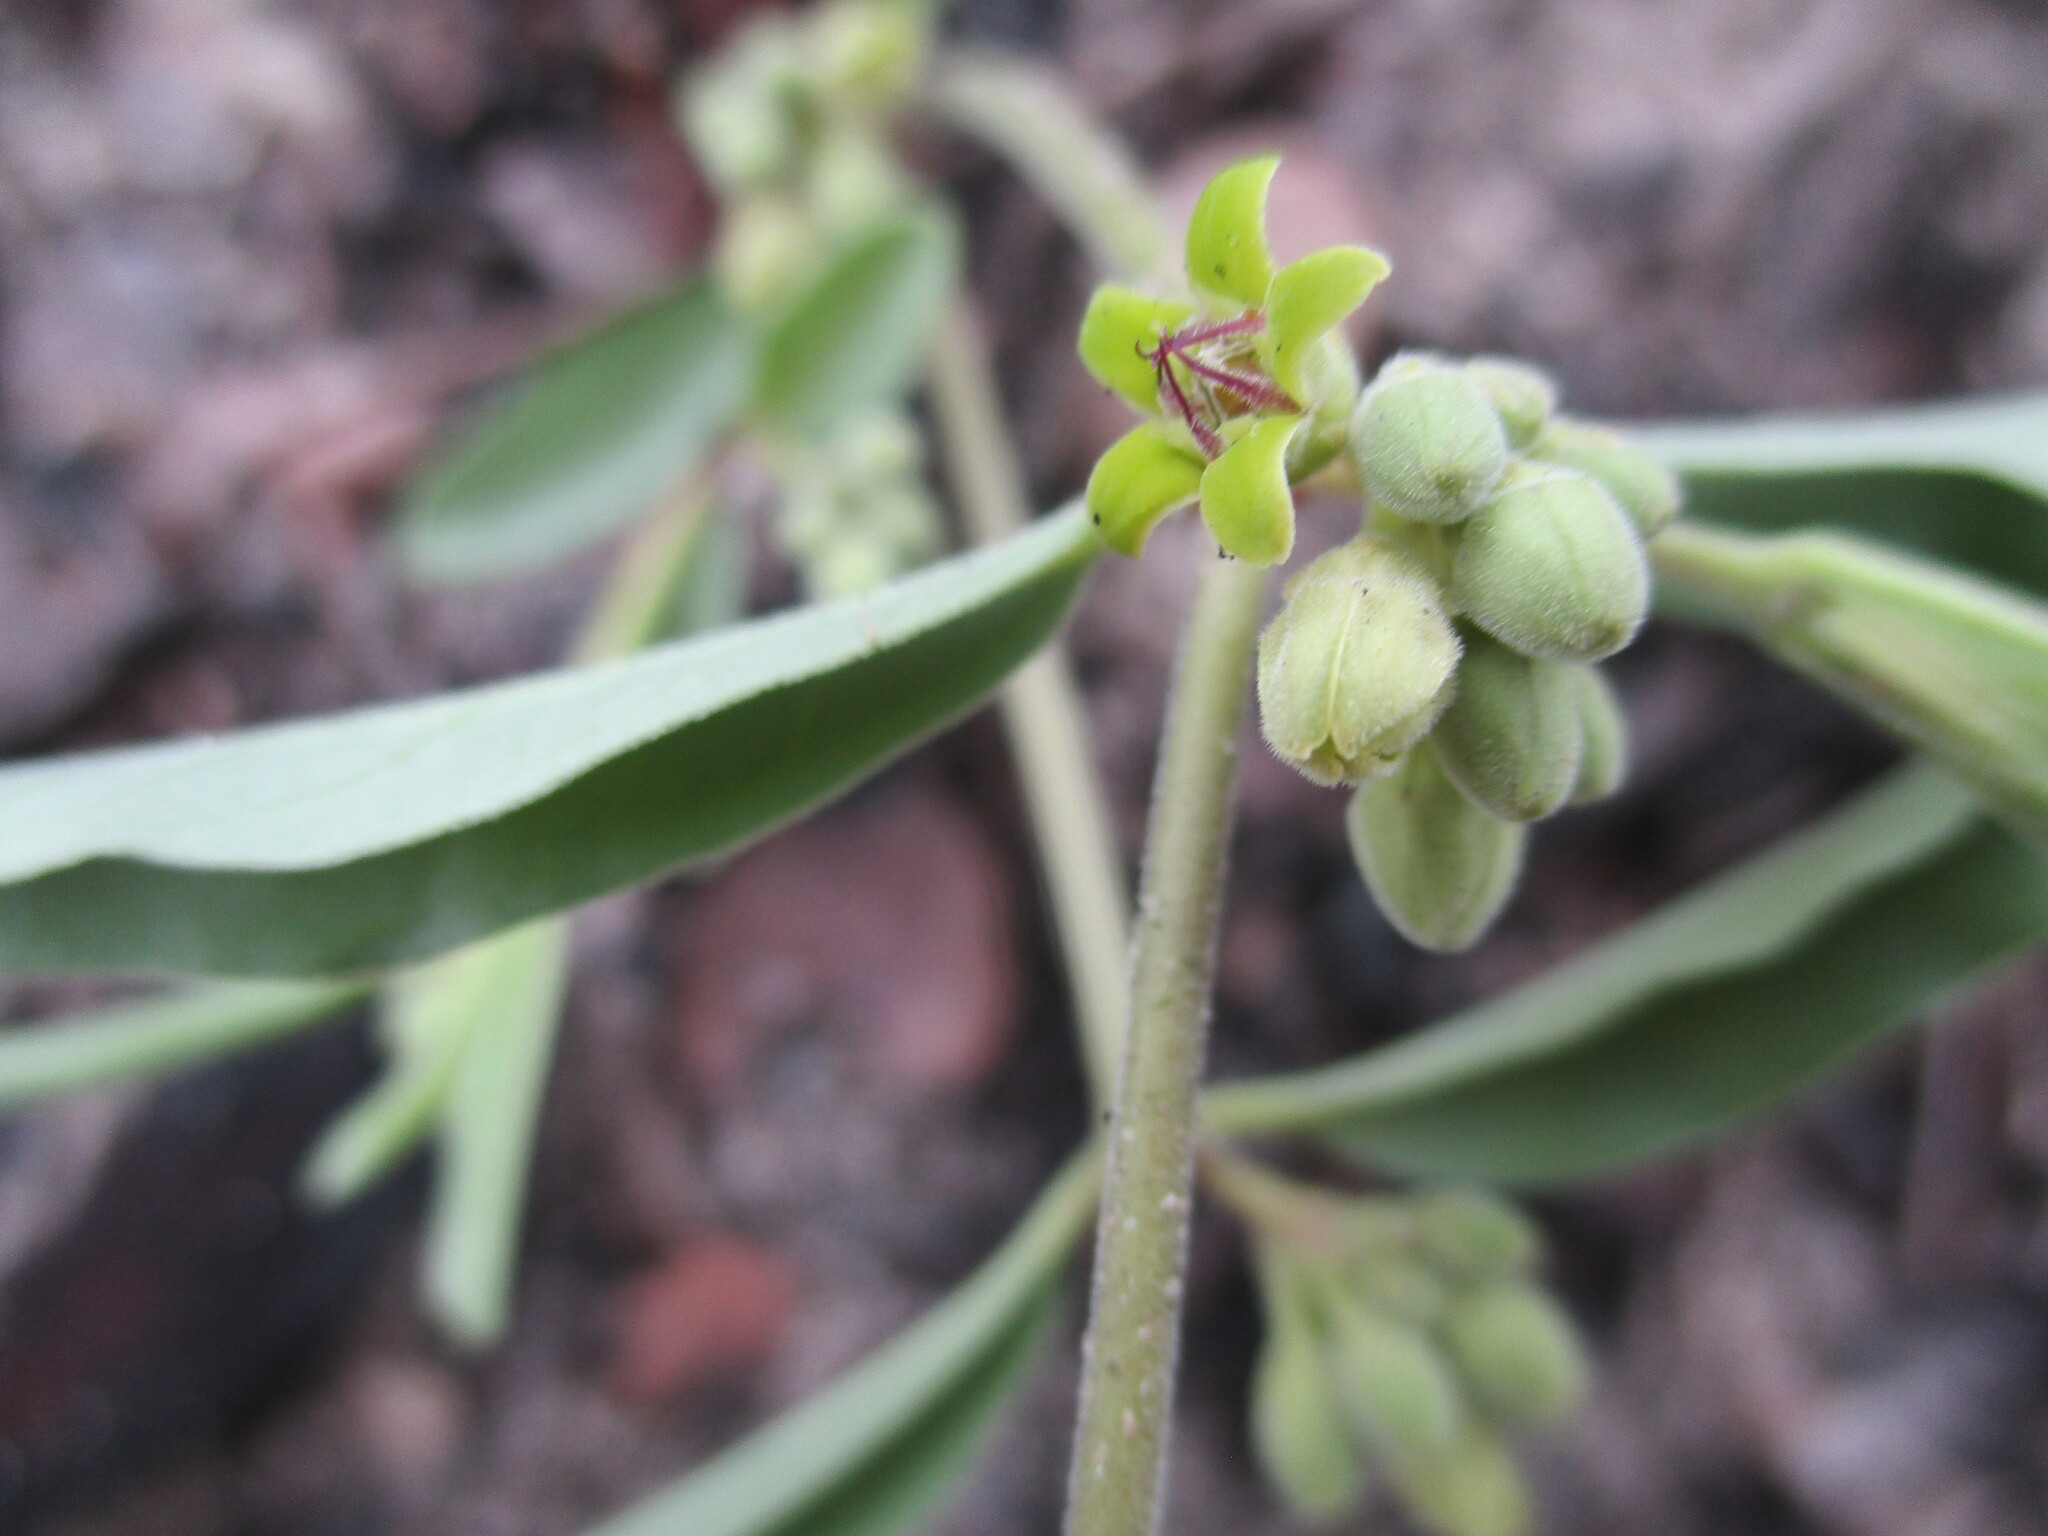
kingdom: Plantae
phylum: Tracheophyta
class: Magnoliopsida
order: Gentianales
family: Apocynaceae
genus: Raphionacme
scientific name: Raphionacme velutina
